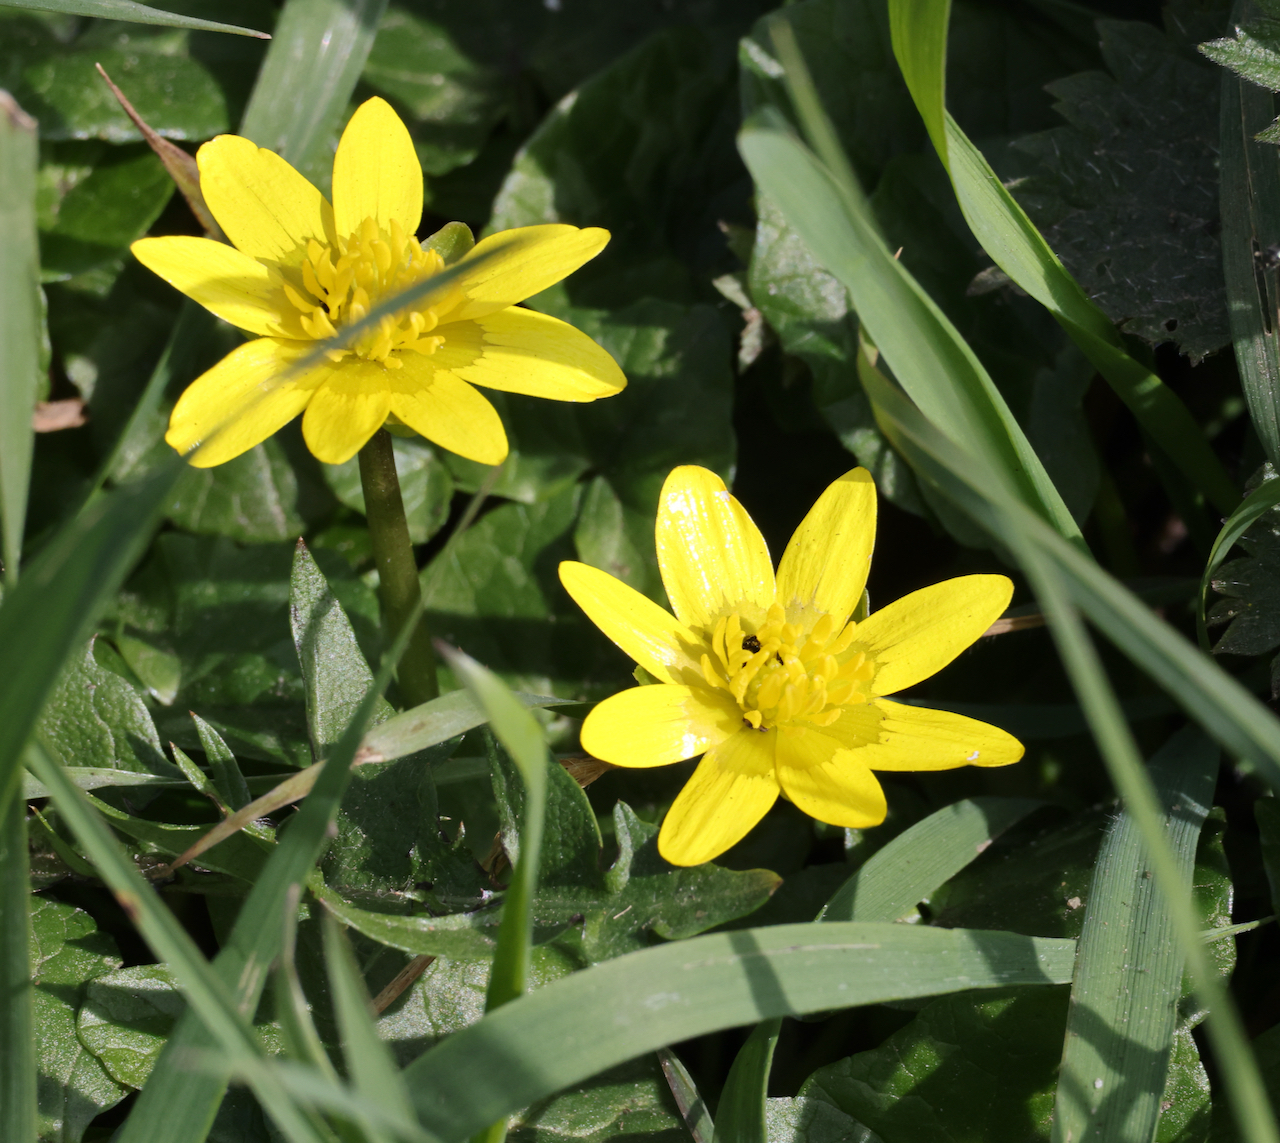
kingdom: Plantae
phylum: Tracheophyta
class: Magnoliopsida
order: Ranunculales
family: Ranunculaceae
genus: Ficaria
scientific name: Ficaria verna
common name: Lesser celandine
